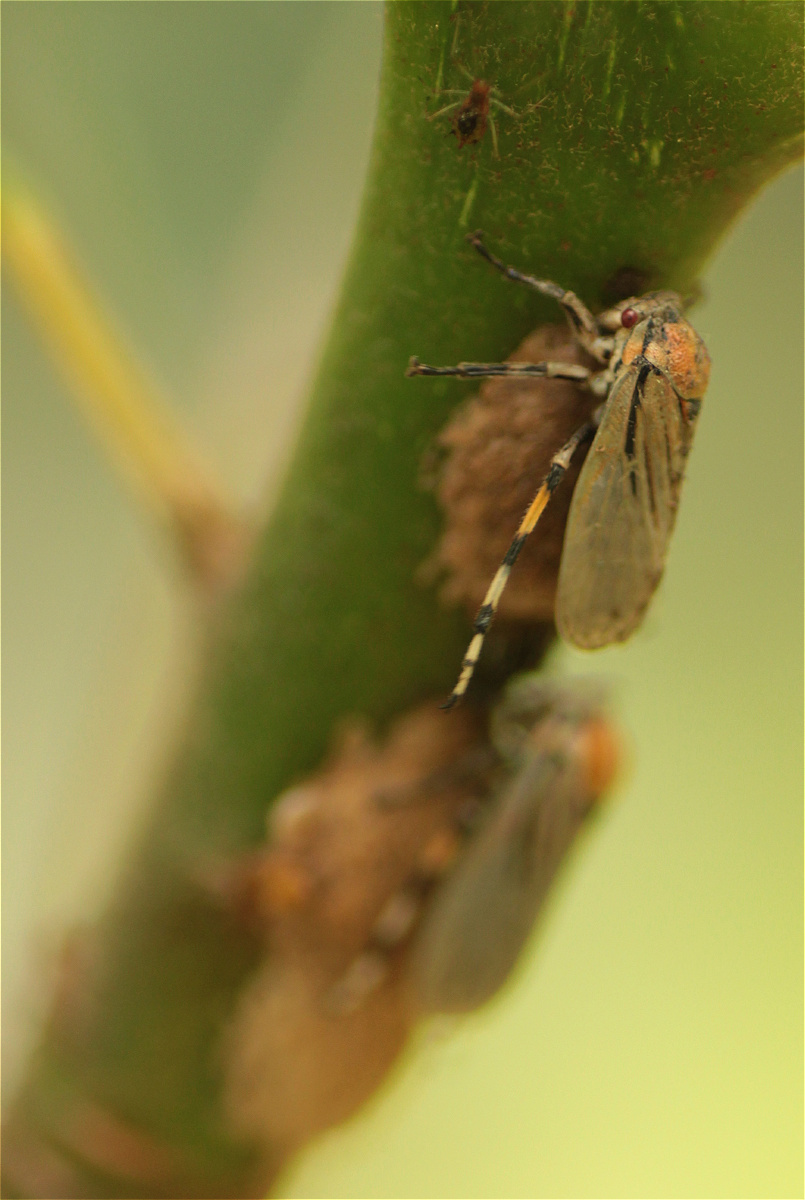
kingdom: Animalia
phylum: Arthropoda
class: Insecta
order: Hemiptera
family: Aetalionidae
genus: Aetalion
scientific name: Aetalion reticulatum
